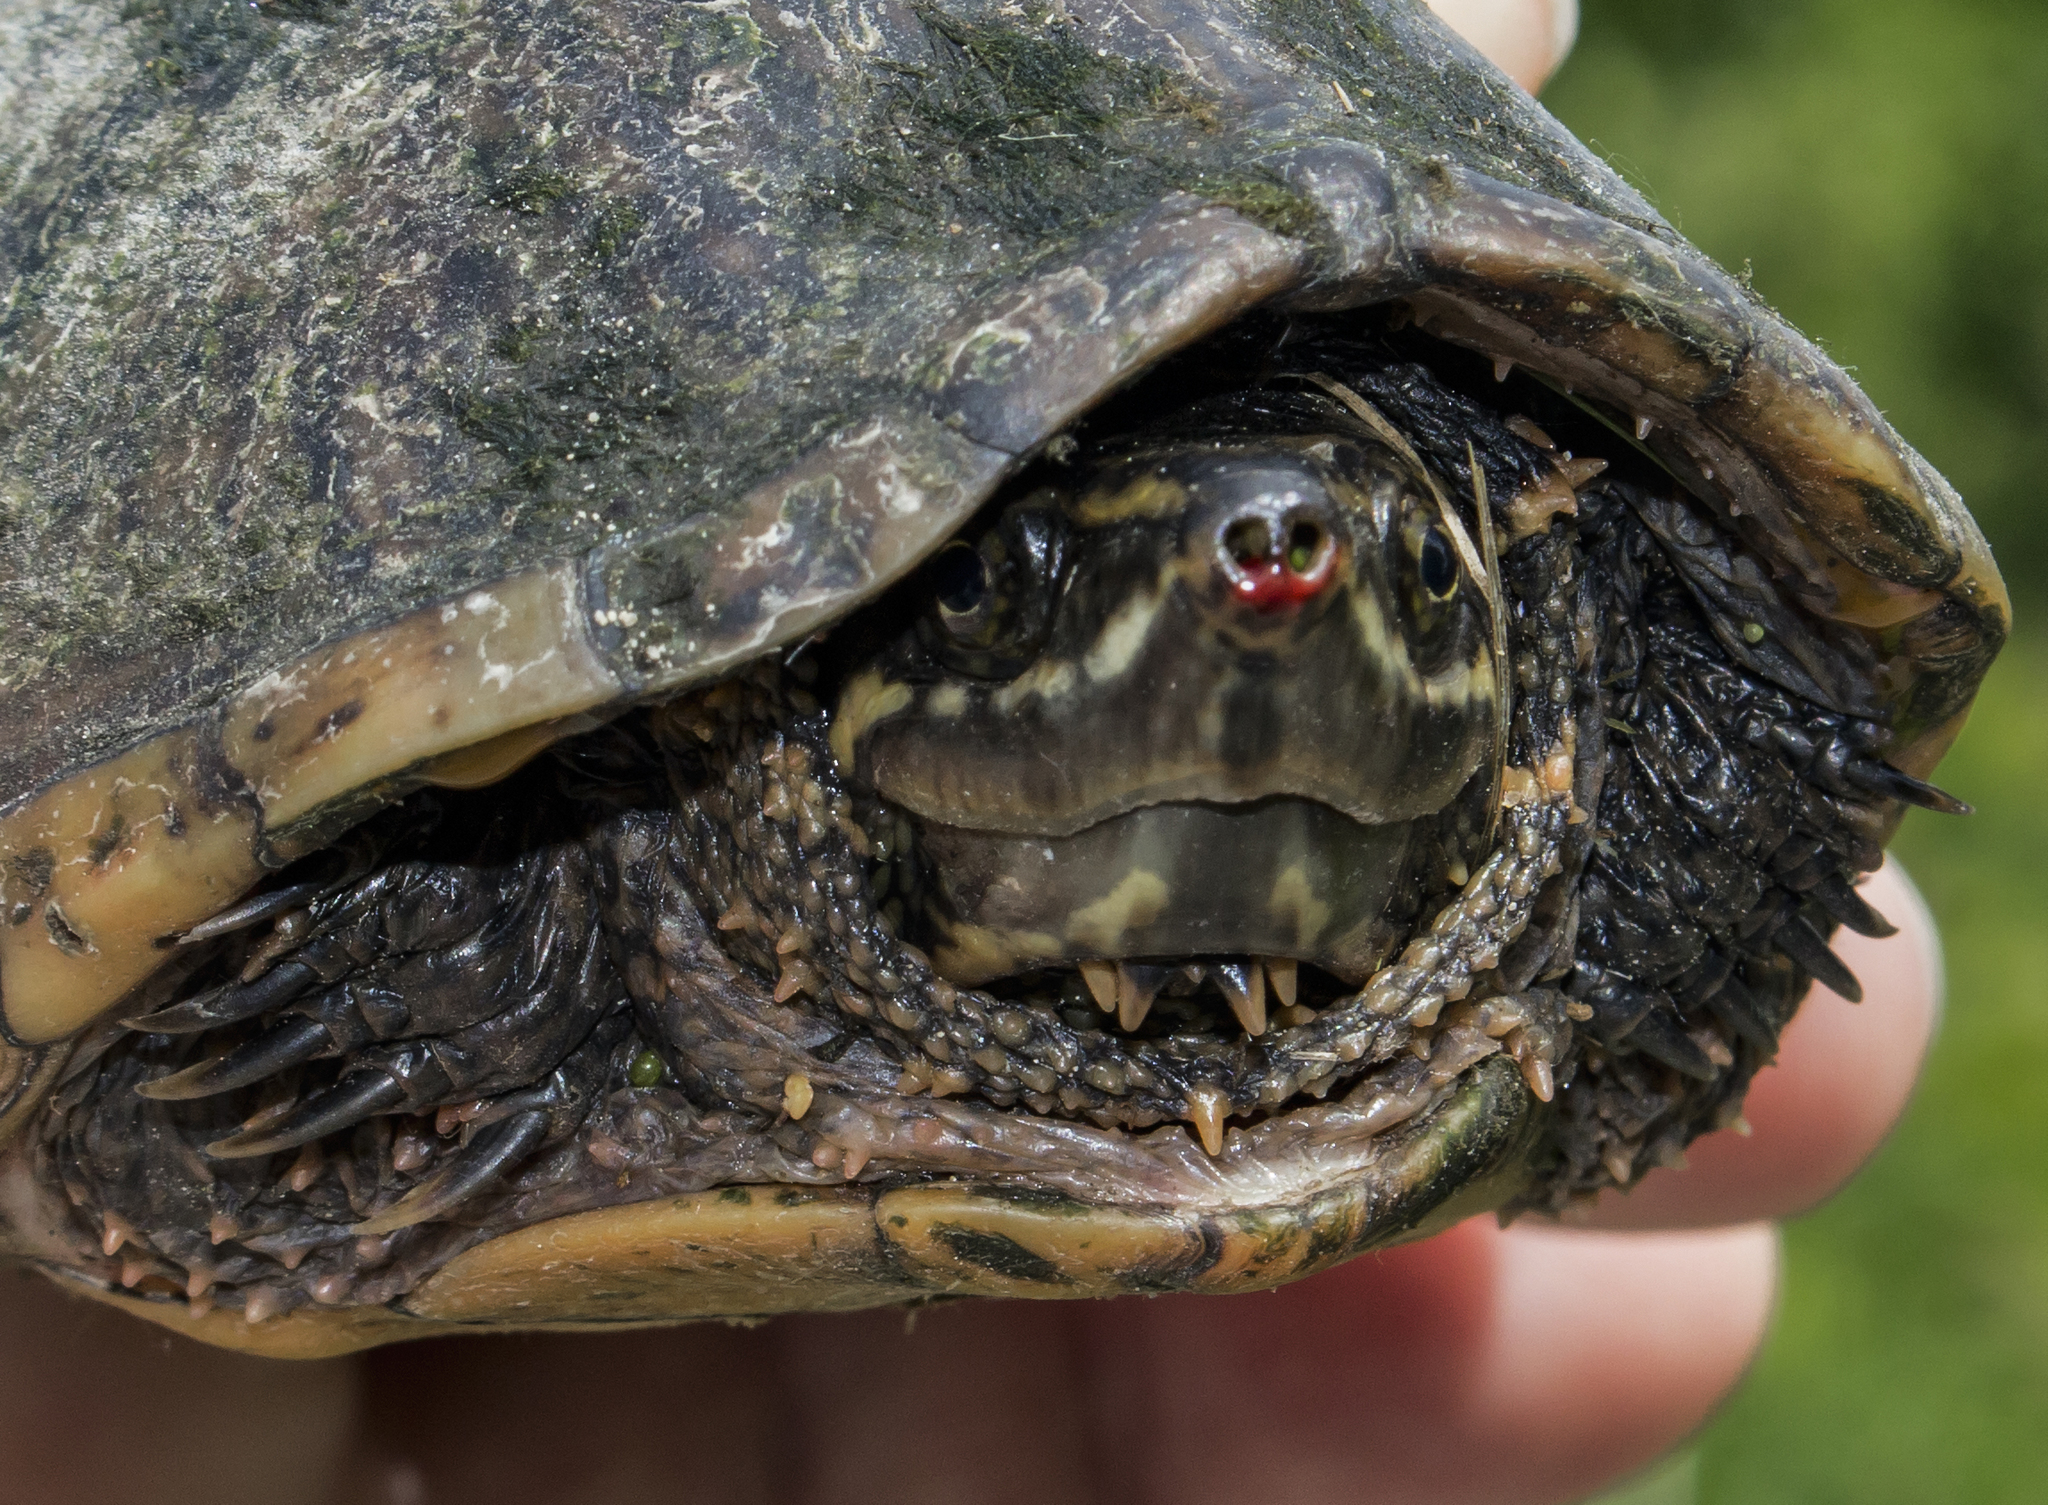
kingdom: Animalia
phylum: Chordata
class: Testudines
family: Kinosternidae
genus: Sternotherus
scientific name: Sternotherus odoratus
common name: Common musk turtle
